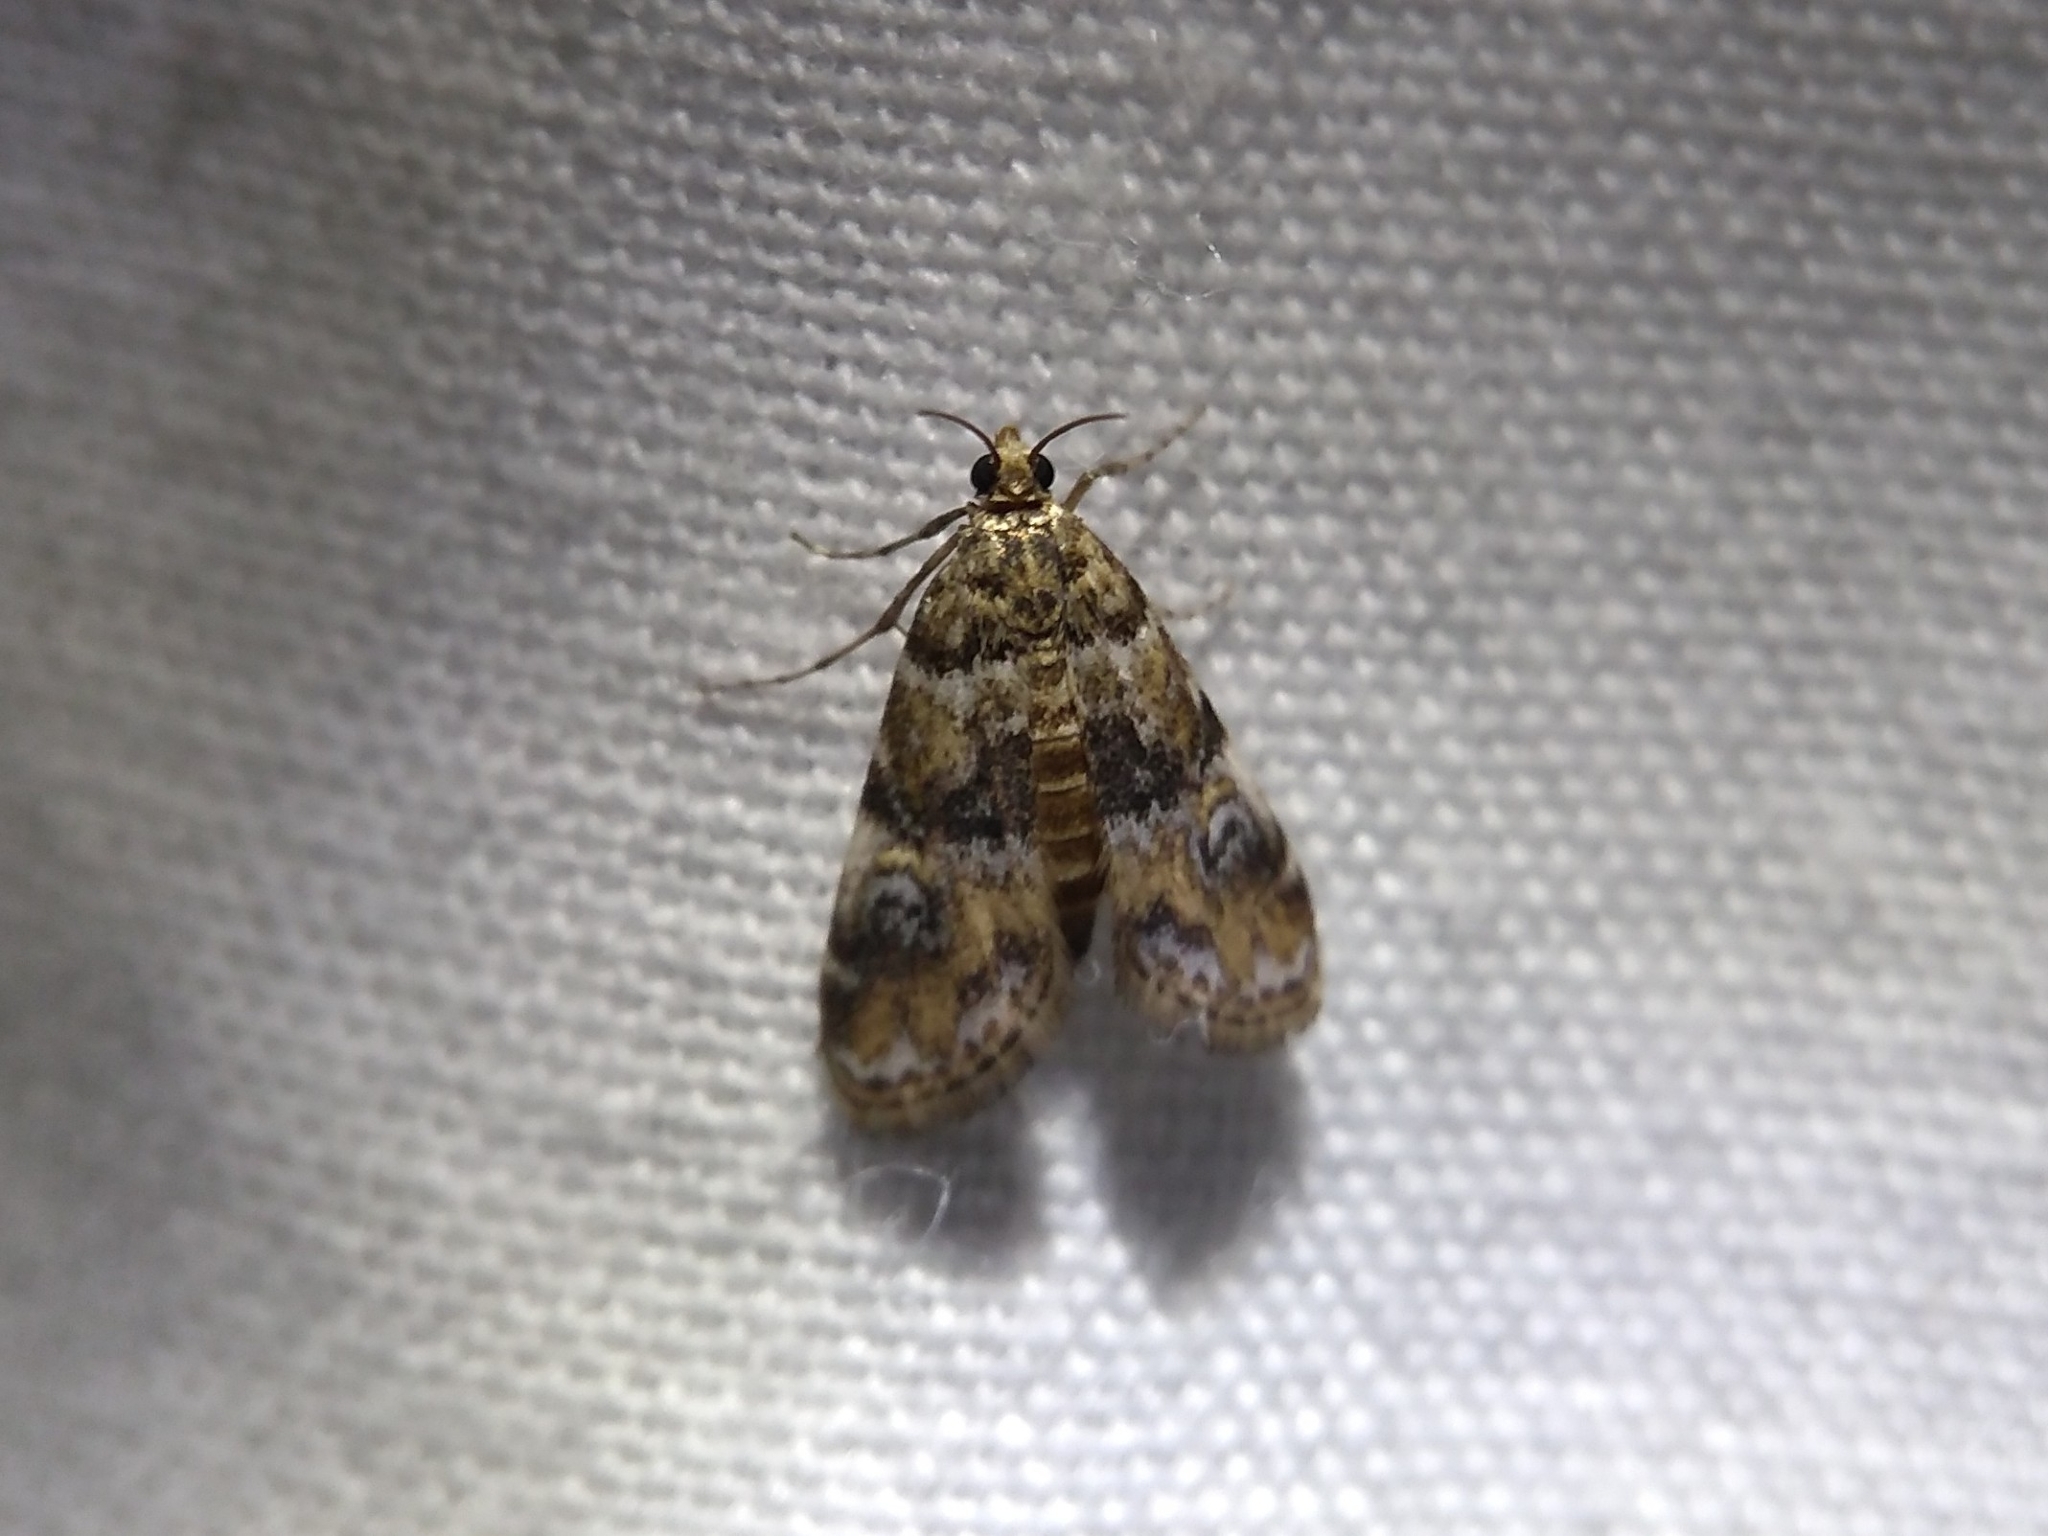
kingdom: Animalia
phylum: Arthropoda
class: Insecta
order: Lepidoptera
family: Crambidae
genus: Elophila
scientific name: Elophila obliteralis
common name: Waterlily leafcutter moth
